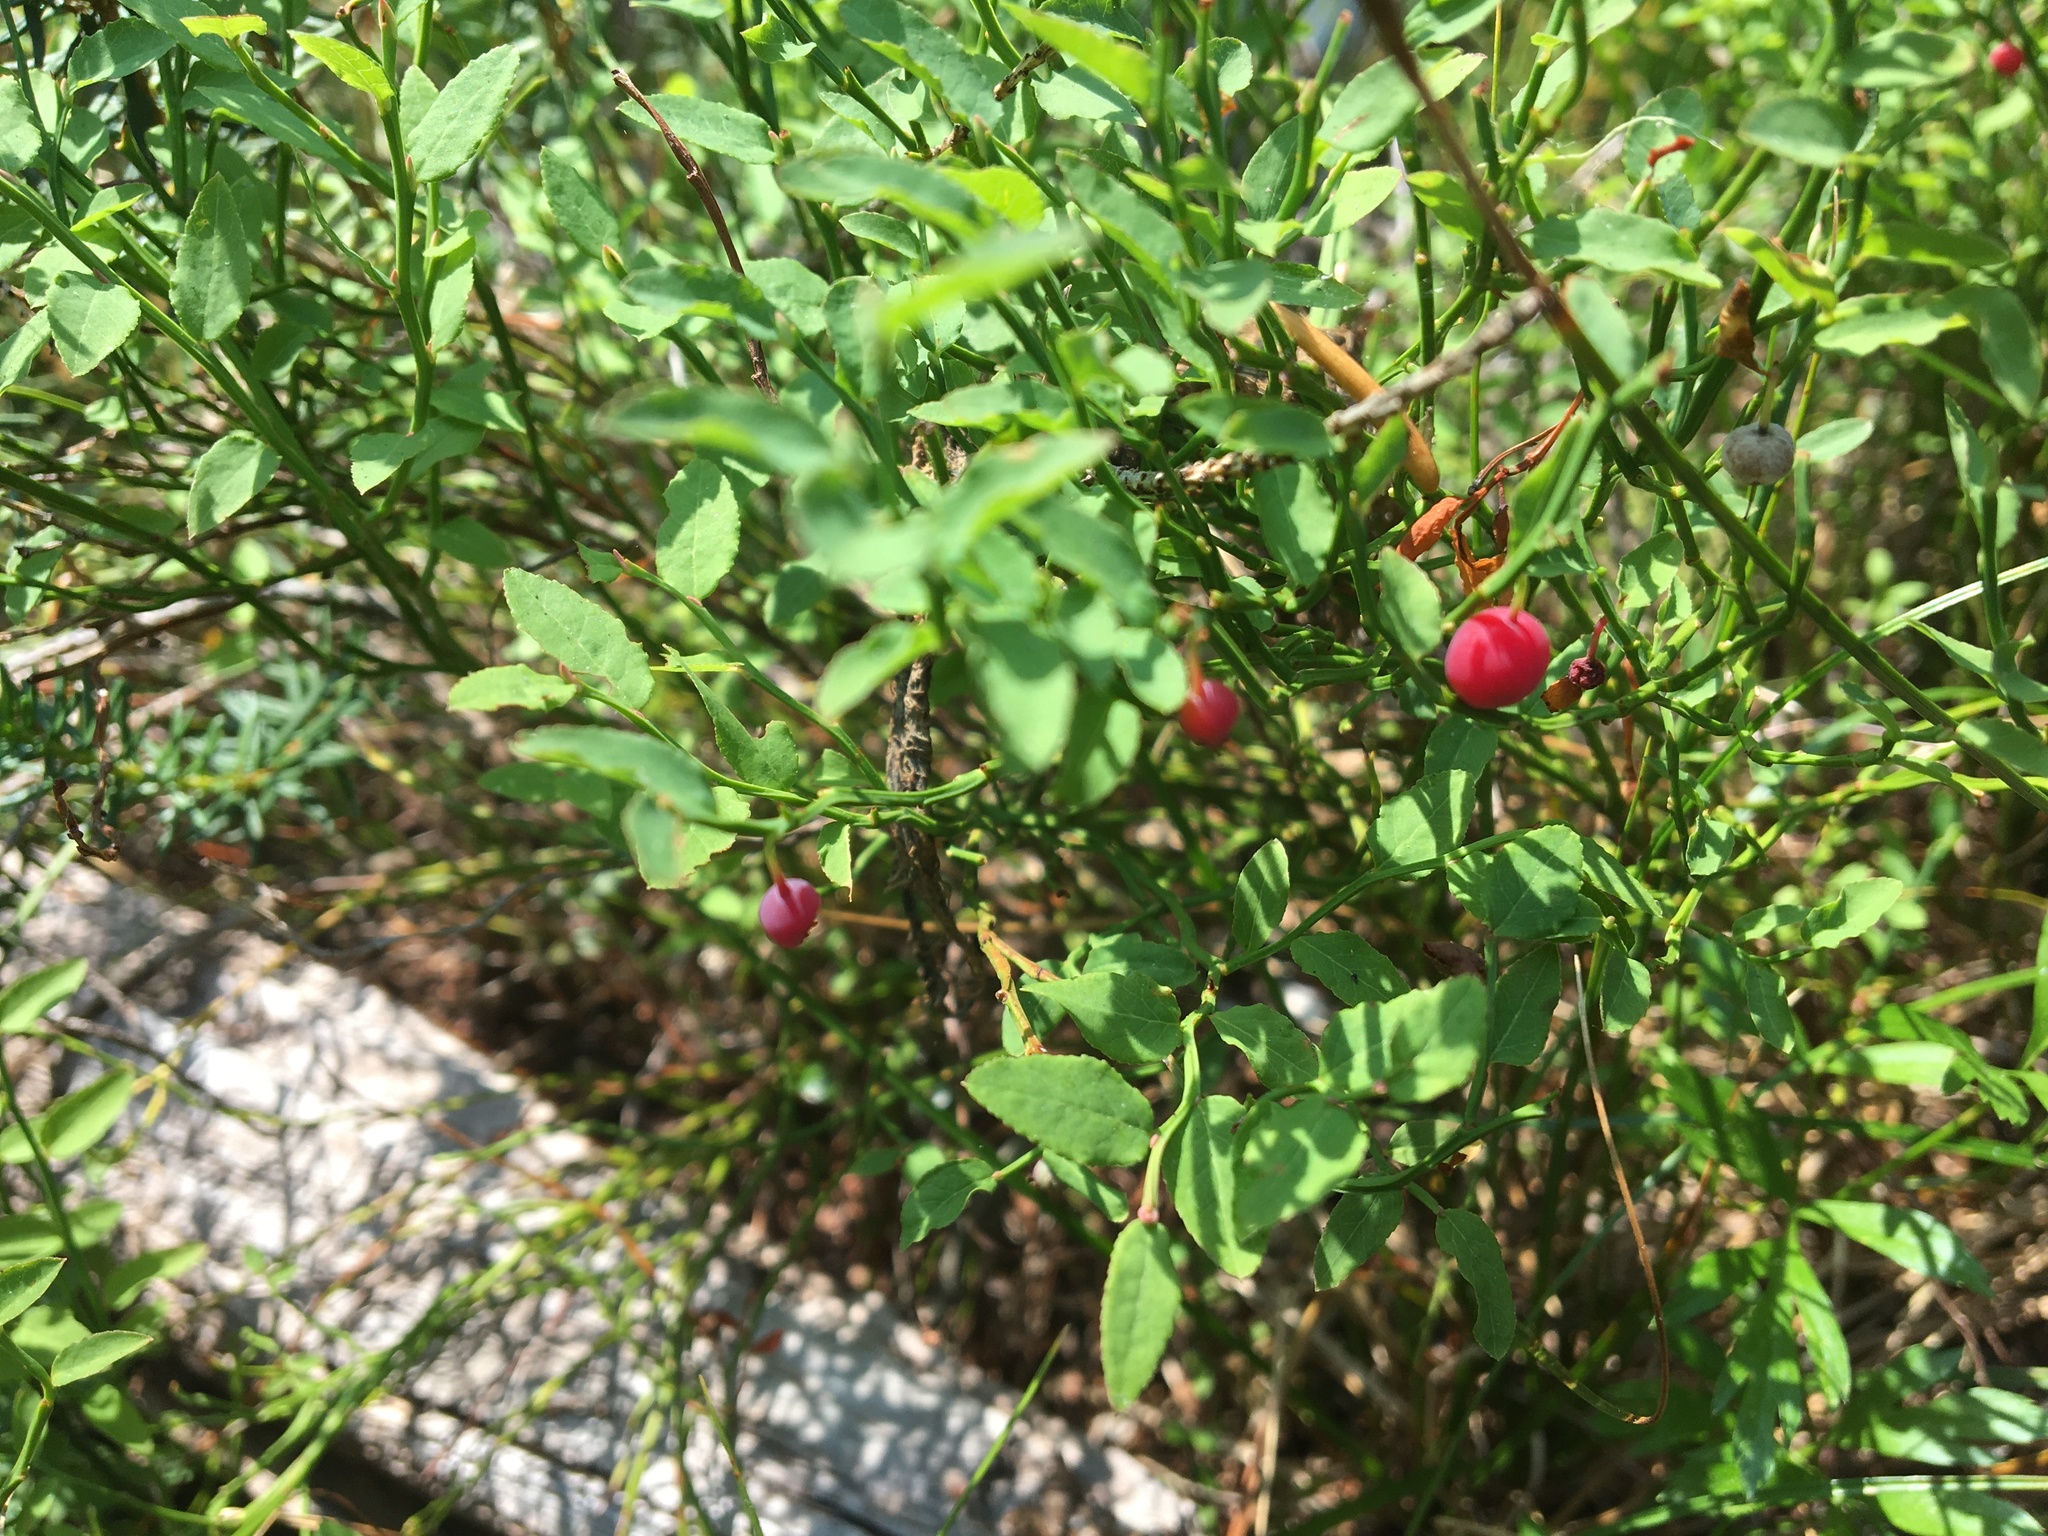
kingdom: Plantae
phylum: Tracheophyta
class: Magnoliopsida
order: Ericales
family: Ericaceae
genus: Vaccinium
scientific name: Vaccinium parvifolium
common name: Red-huckleberry
